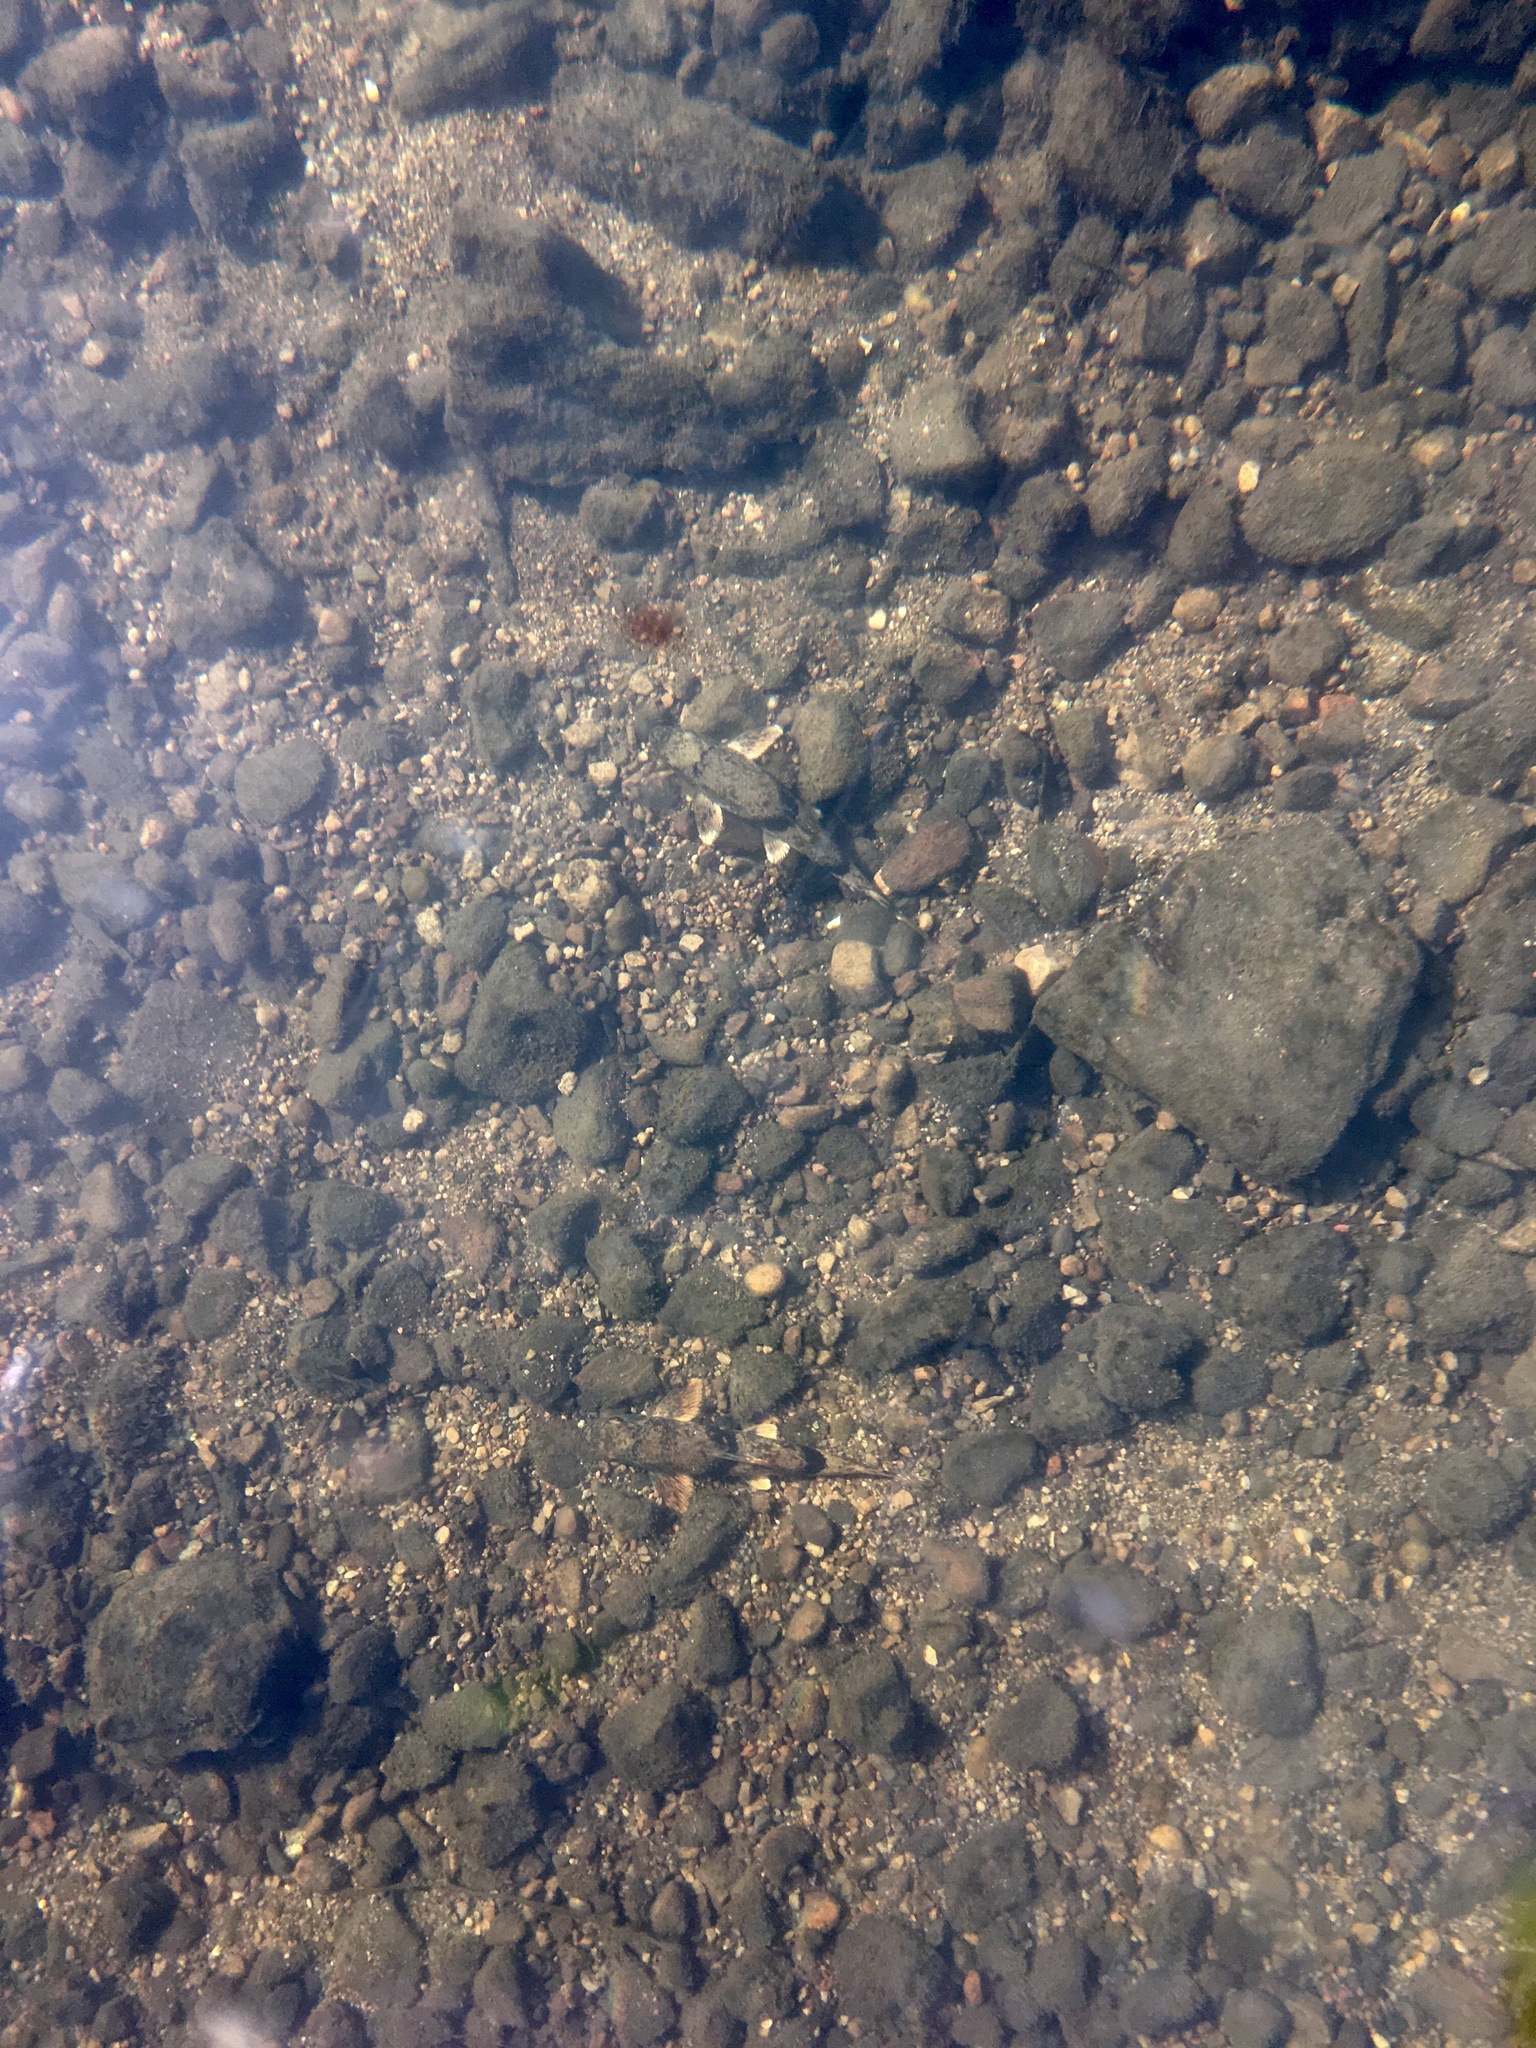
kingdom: Animalia
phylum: Chordata
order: Cypriniformes
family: Catostomidae
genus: Hypentelium
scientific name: Hypentelium nigricans
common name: Northern hog sucker
